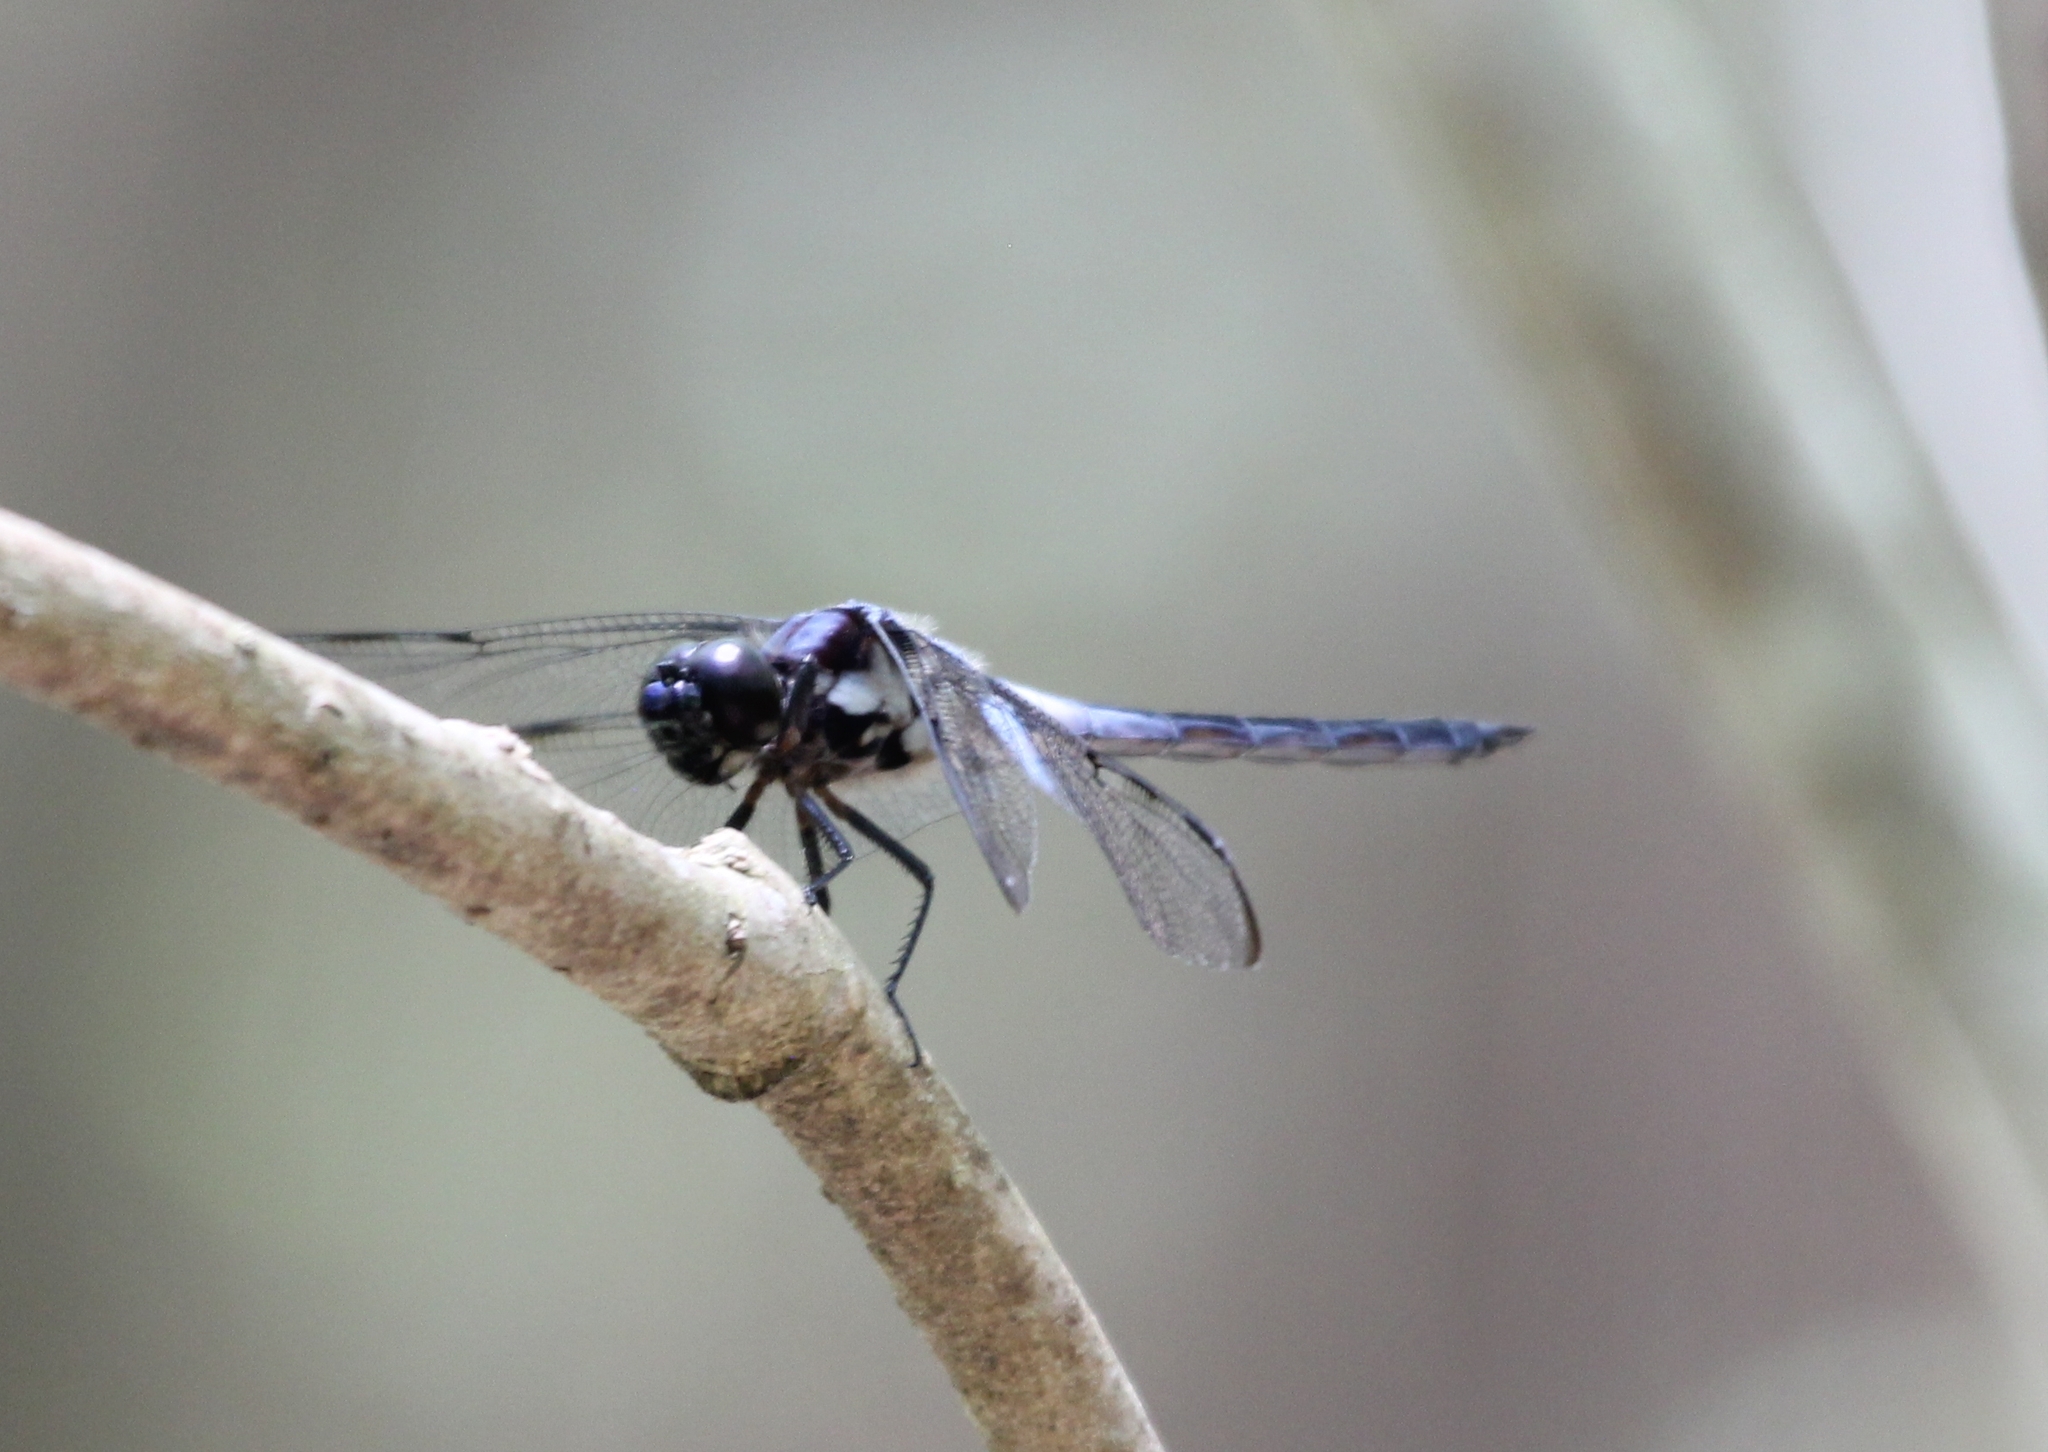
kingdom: Animalia
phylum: Arthropoda
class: Insecta
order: Odonata
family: Libellulidae
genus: Libellula
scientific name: Libellula axilena
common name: Bar-winged skimmer
